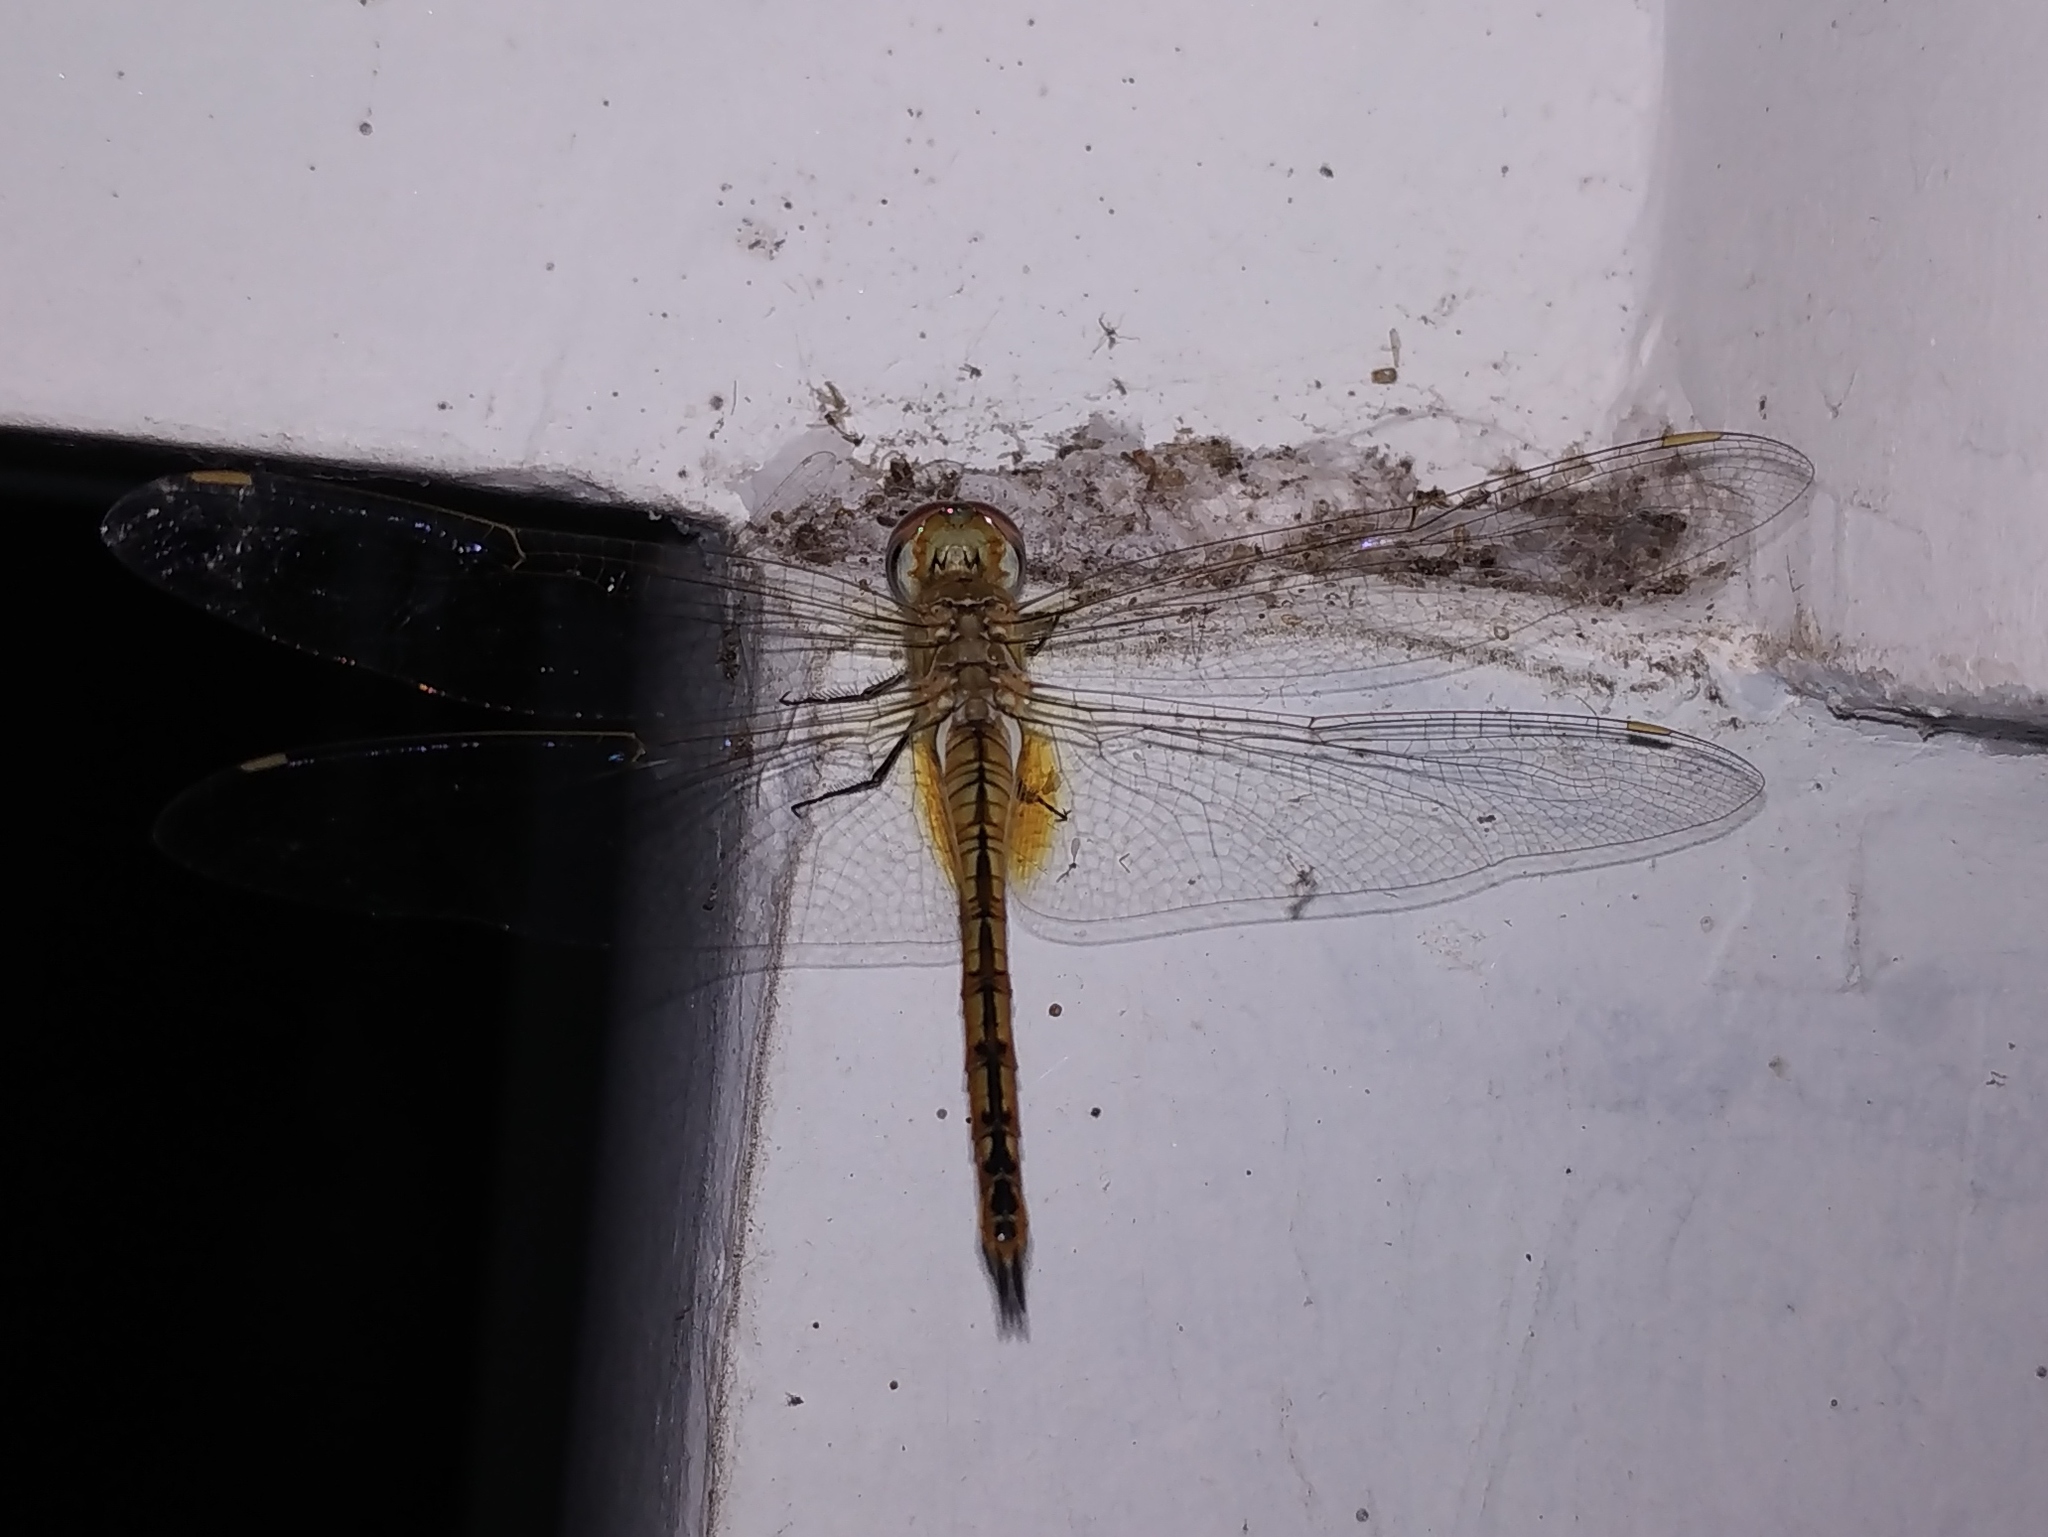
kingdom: Animalia
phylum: Arthropoda
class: Insecta
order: Odonata
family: Libellulidae
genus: Pantala
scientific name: Pantala flavescens
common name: Wandering glider
